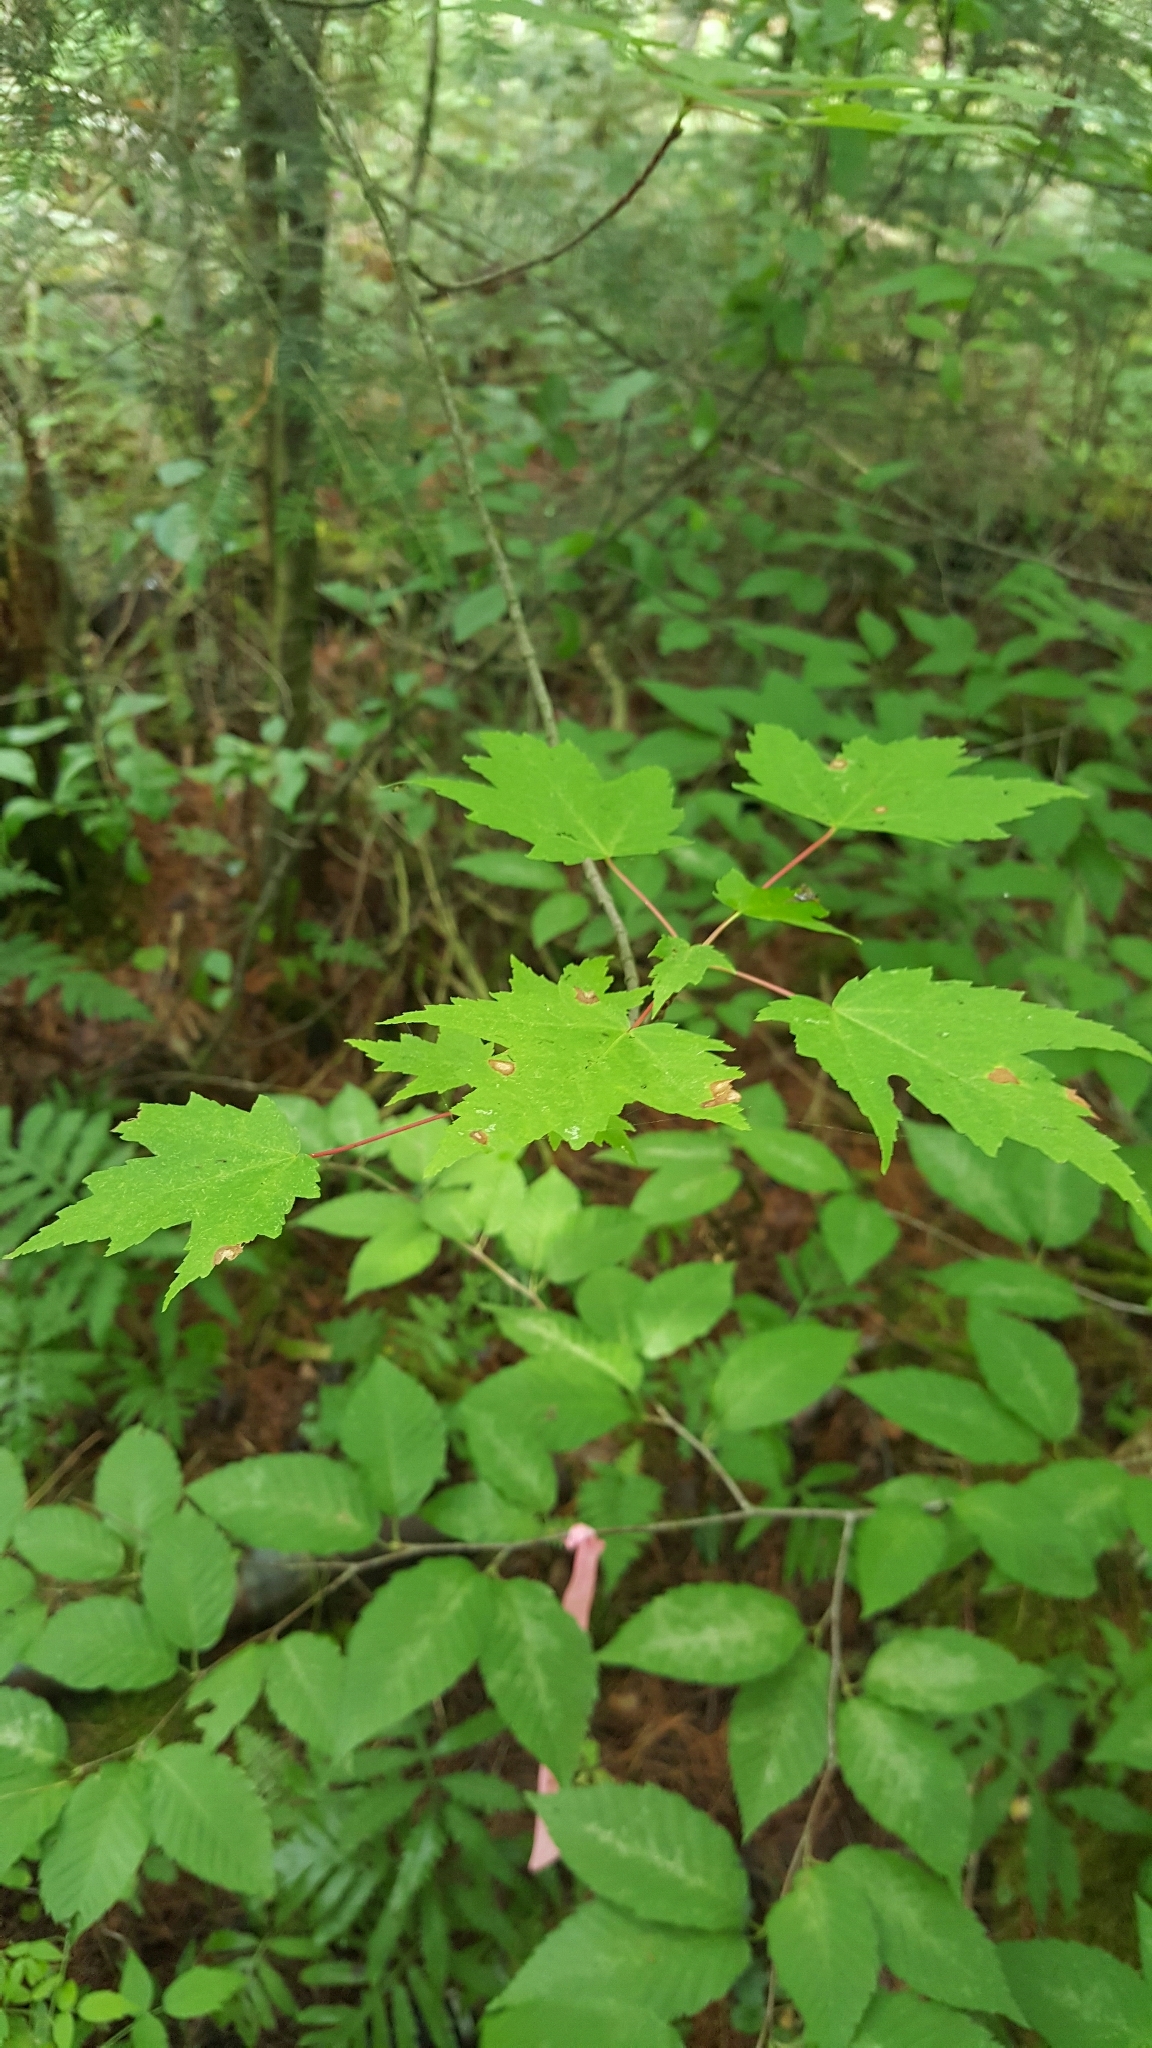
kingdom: Plantae
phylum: Tracheophyta
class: Magnoliopsida
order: Sapindales
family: Sapindaceae
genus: Acer
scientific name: Acer rubrum
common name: Red maple
